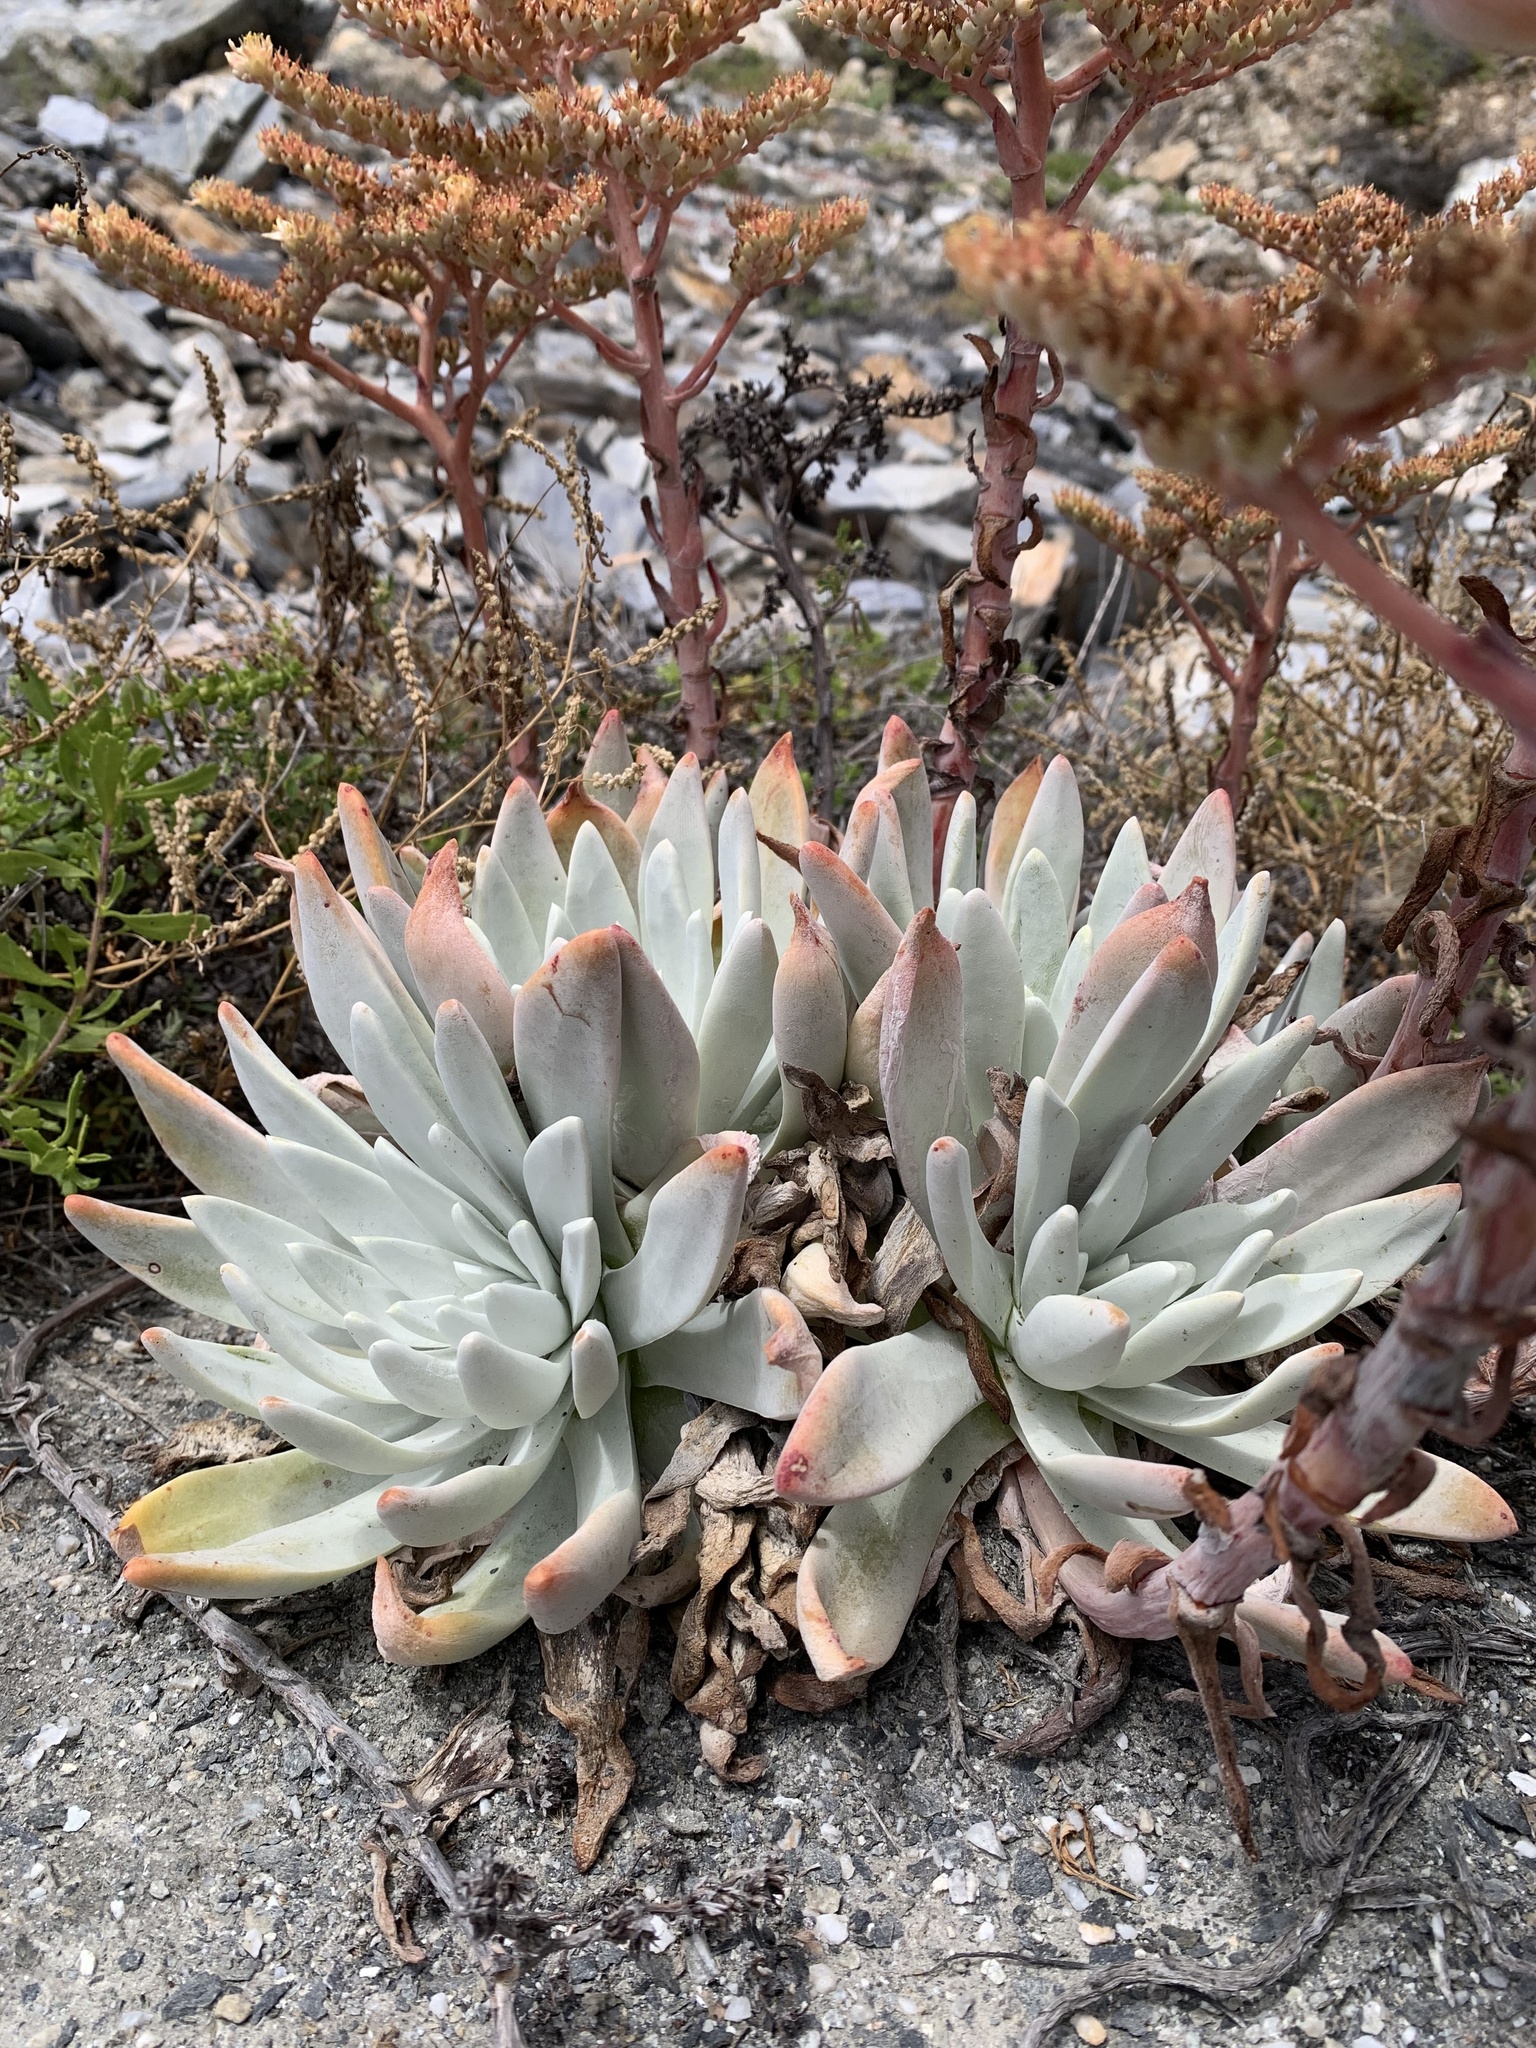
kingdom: Plantae
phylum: Tracheophyta
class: Magnoliopsida
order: Saxifragales
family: Crassulaceae
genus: Dudleya
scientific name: Dudleya virens
